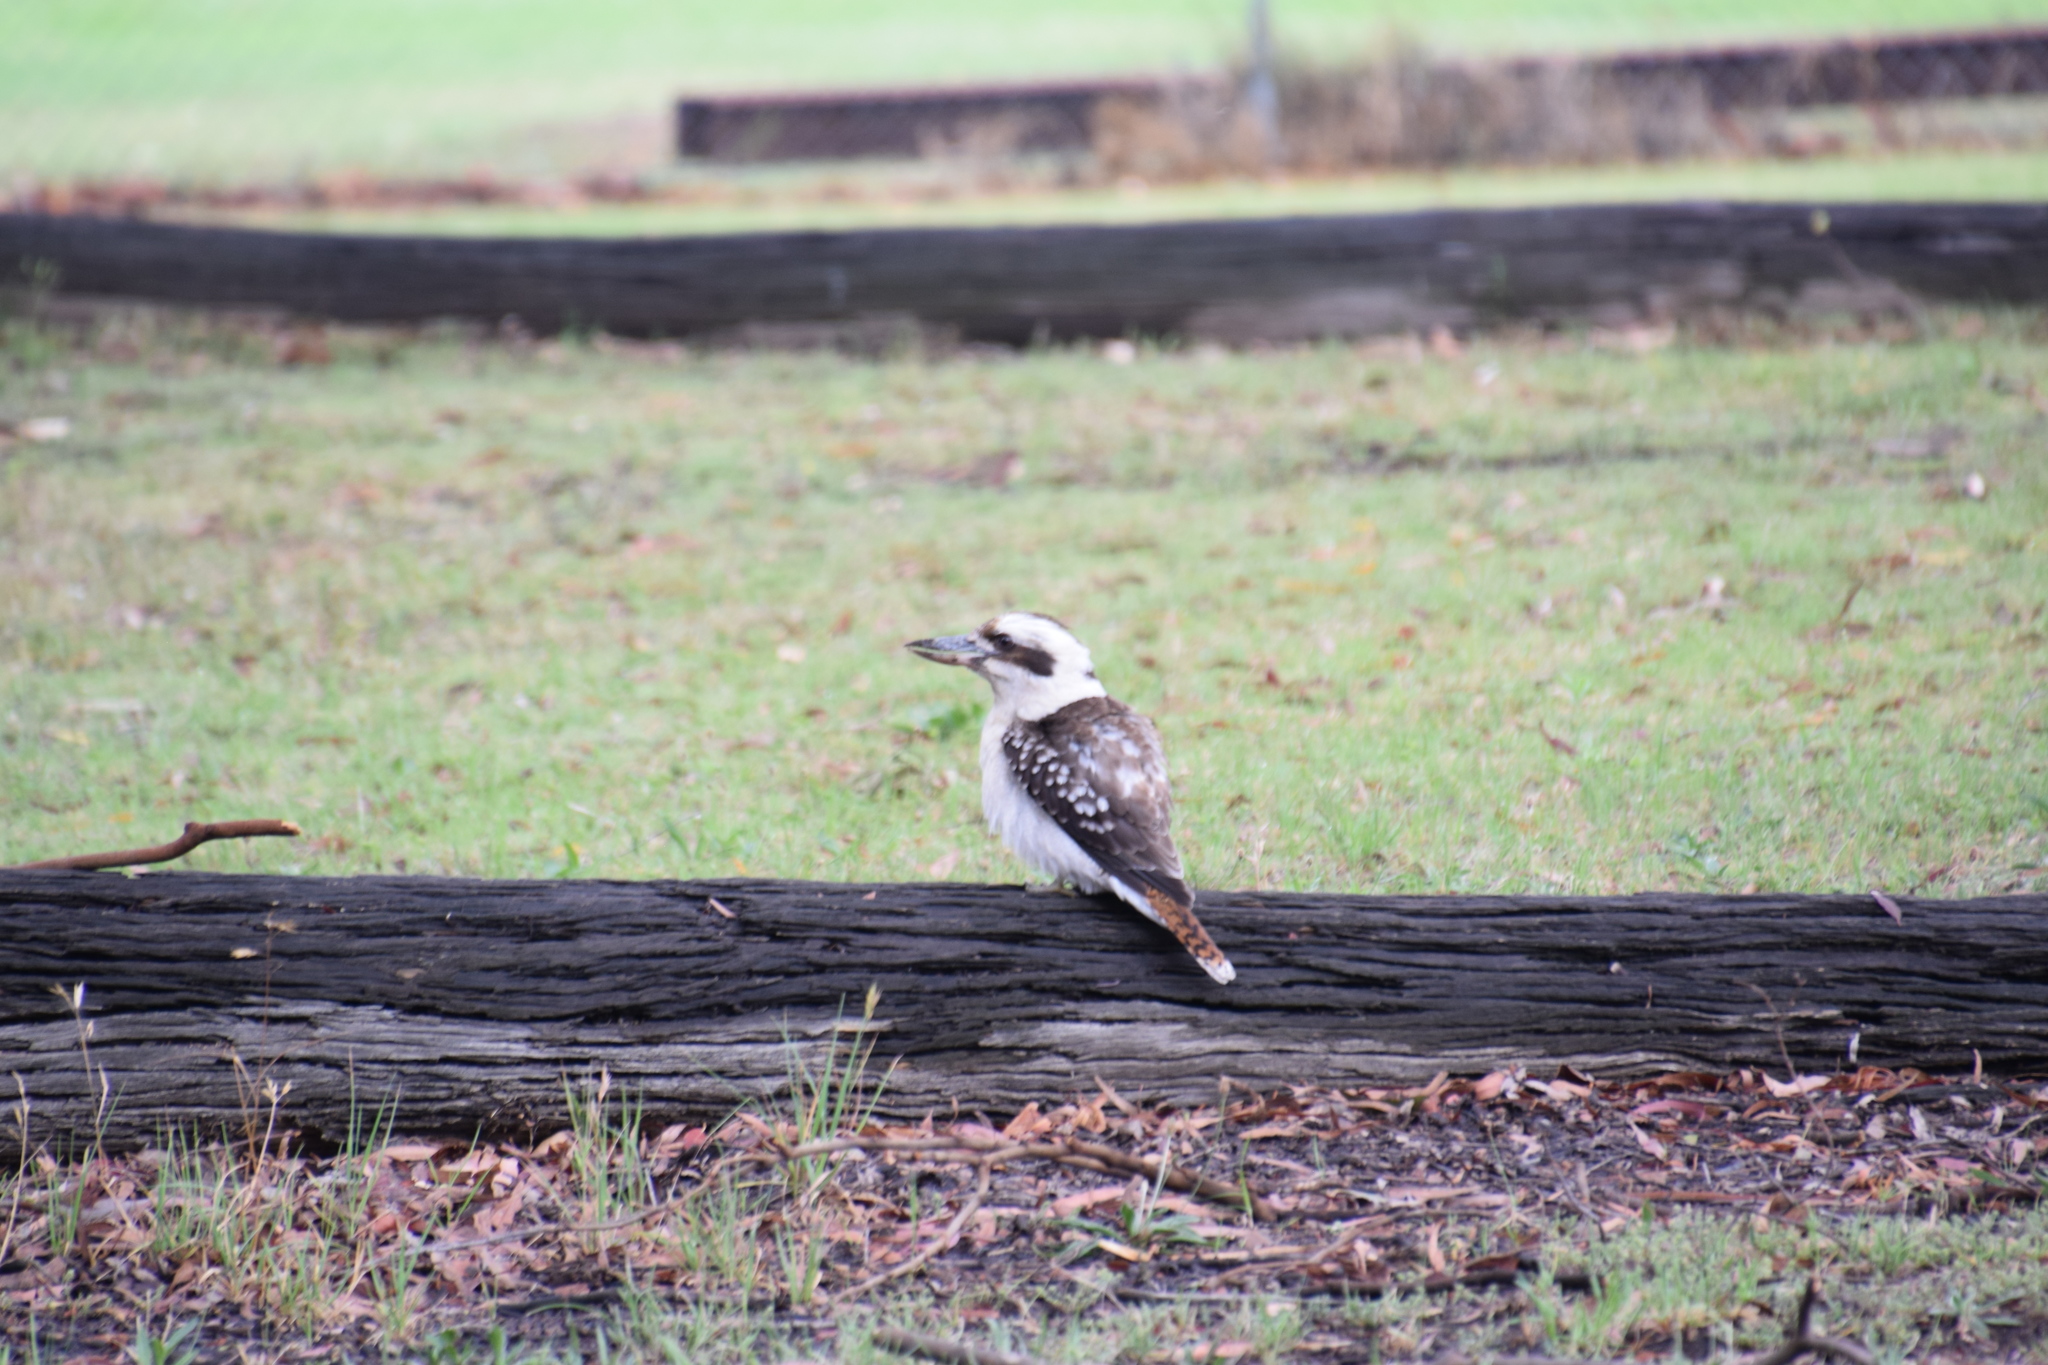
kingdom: Animalia
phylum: Chordata
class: Aves
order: Coraciiformes
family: Alcedinidae
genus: Dacelo
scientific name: Dacelo novaeguineae
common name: Laughing kookaburra
